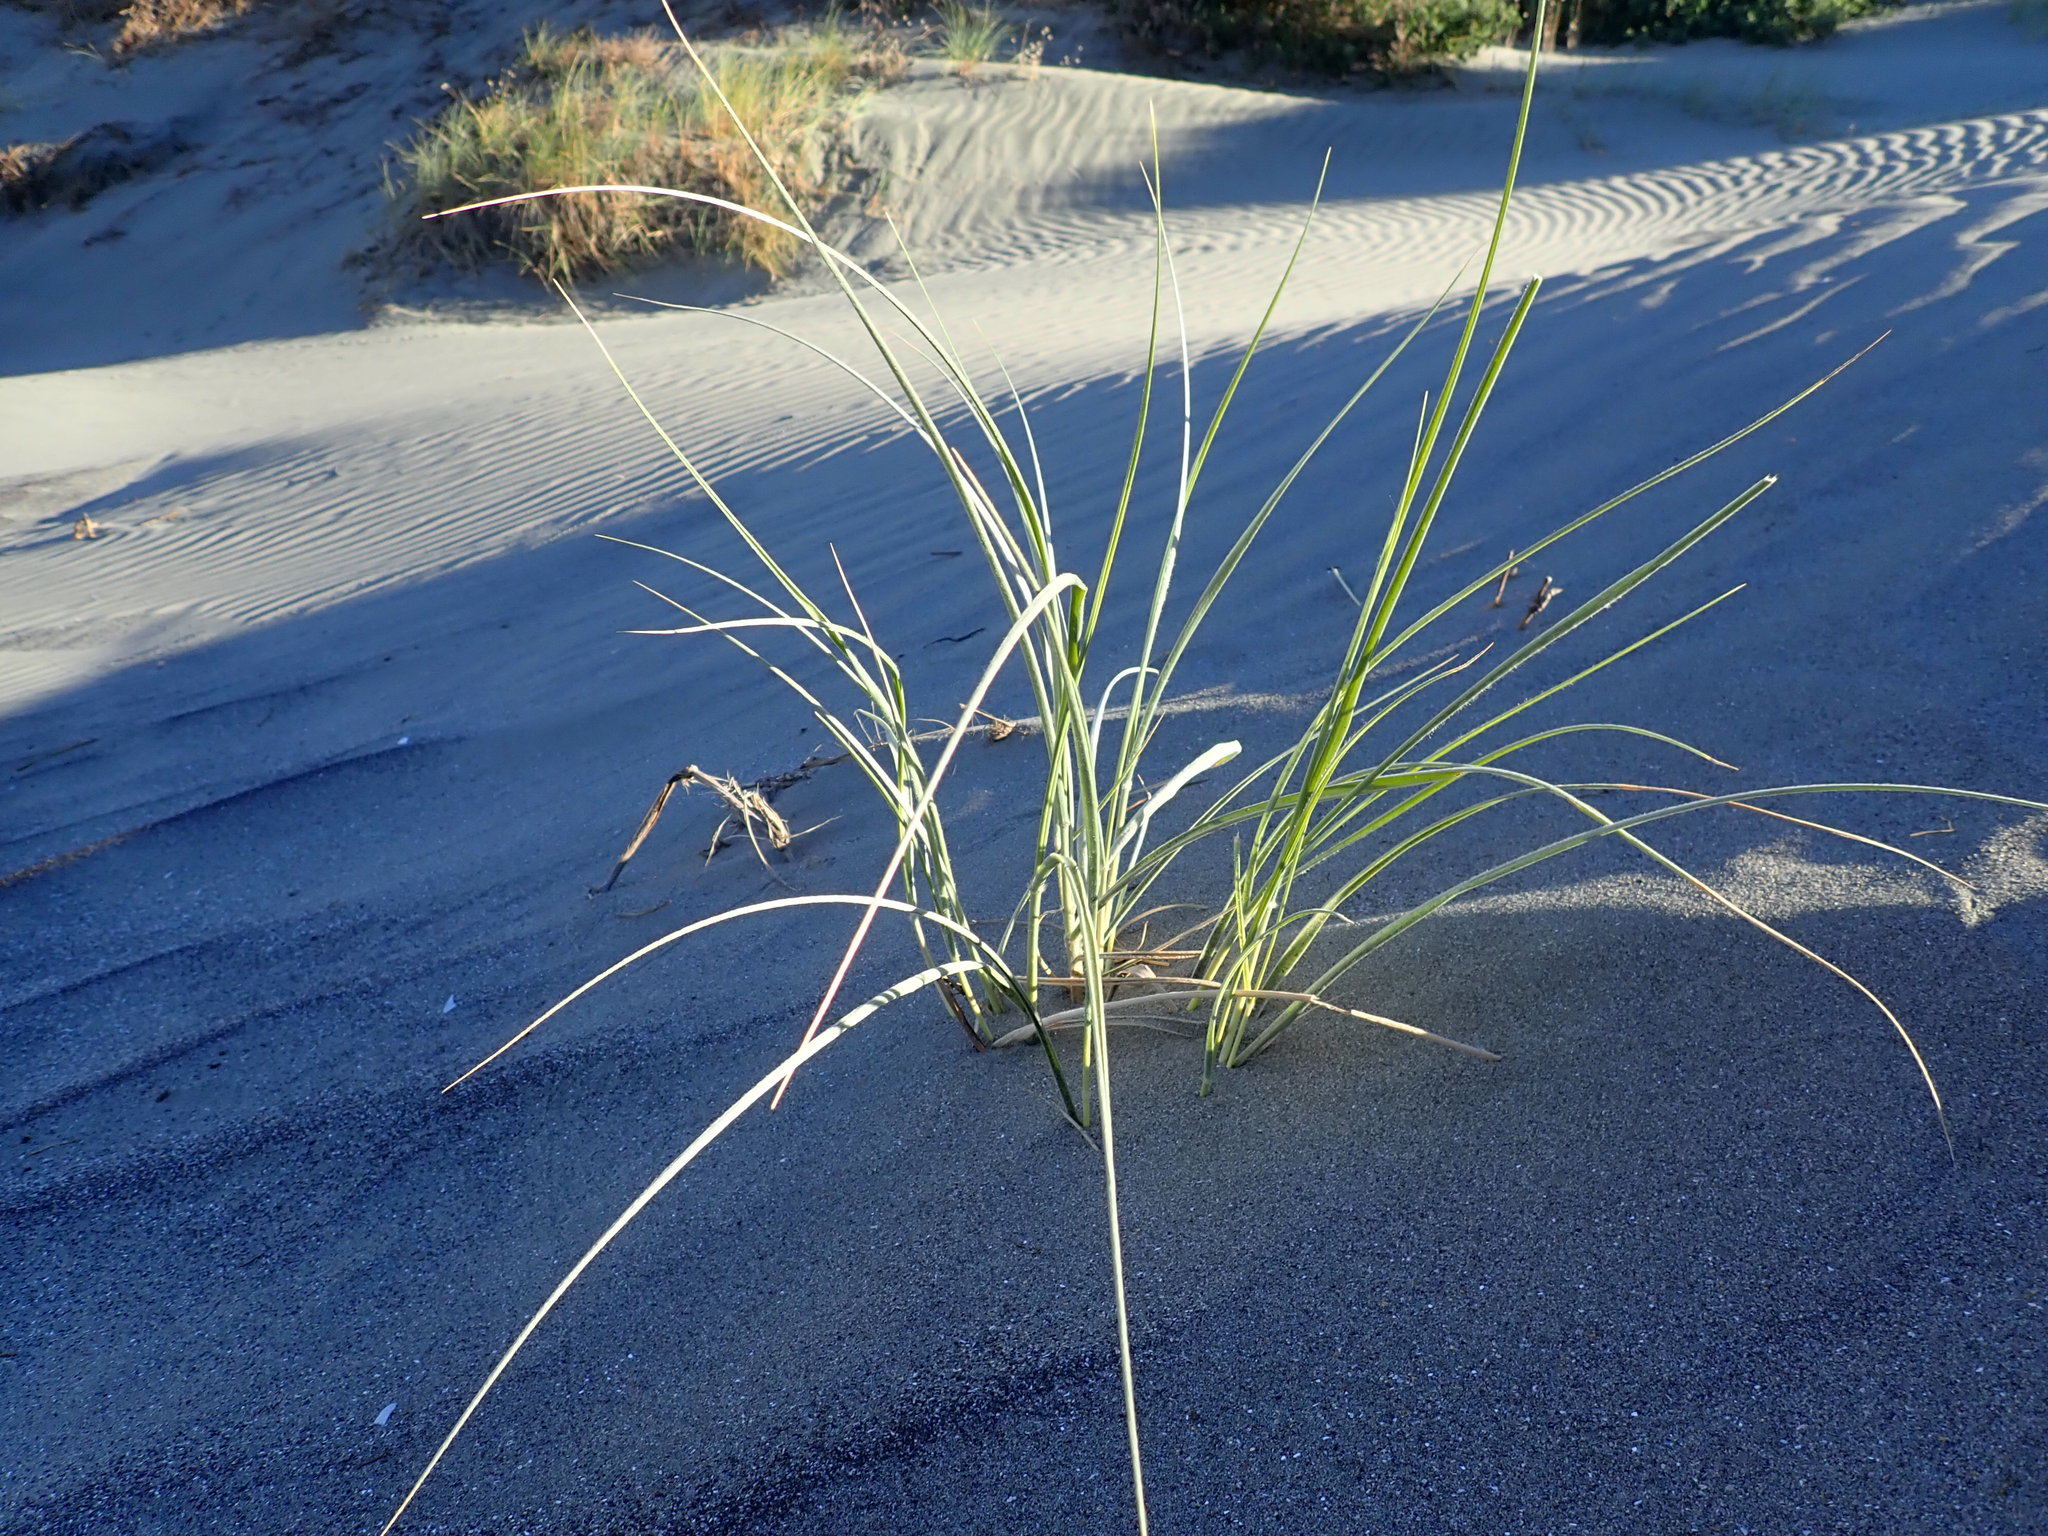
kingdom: Plantae
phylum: Tracheophyta
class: Liliopsida
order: Poales
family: Poaceae
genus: Spinifex
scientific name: Spinifex sericeus
